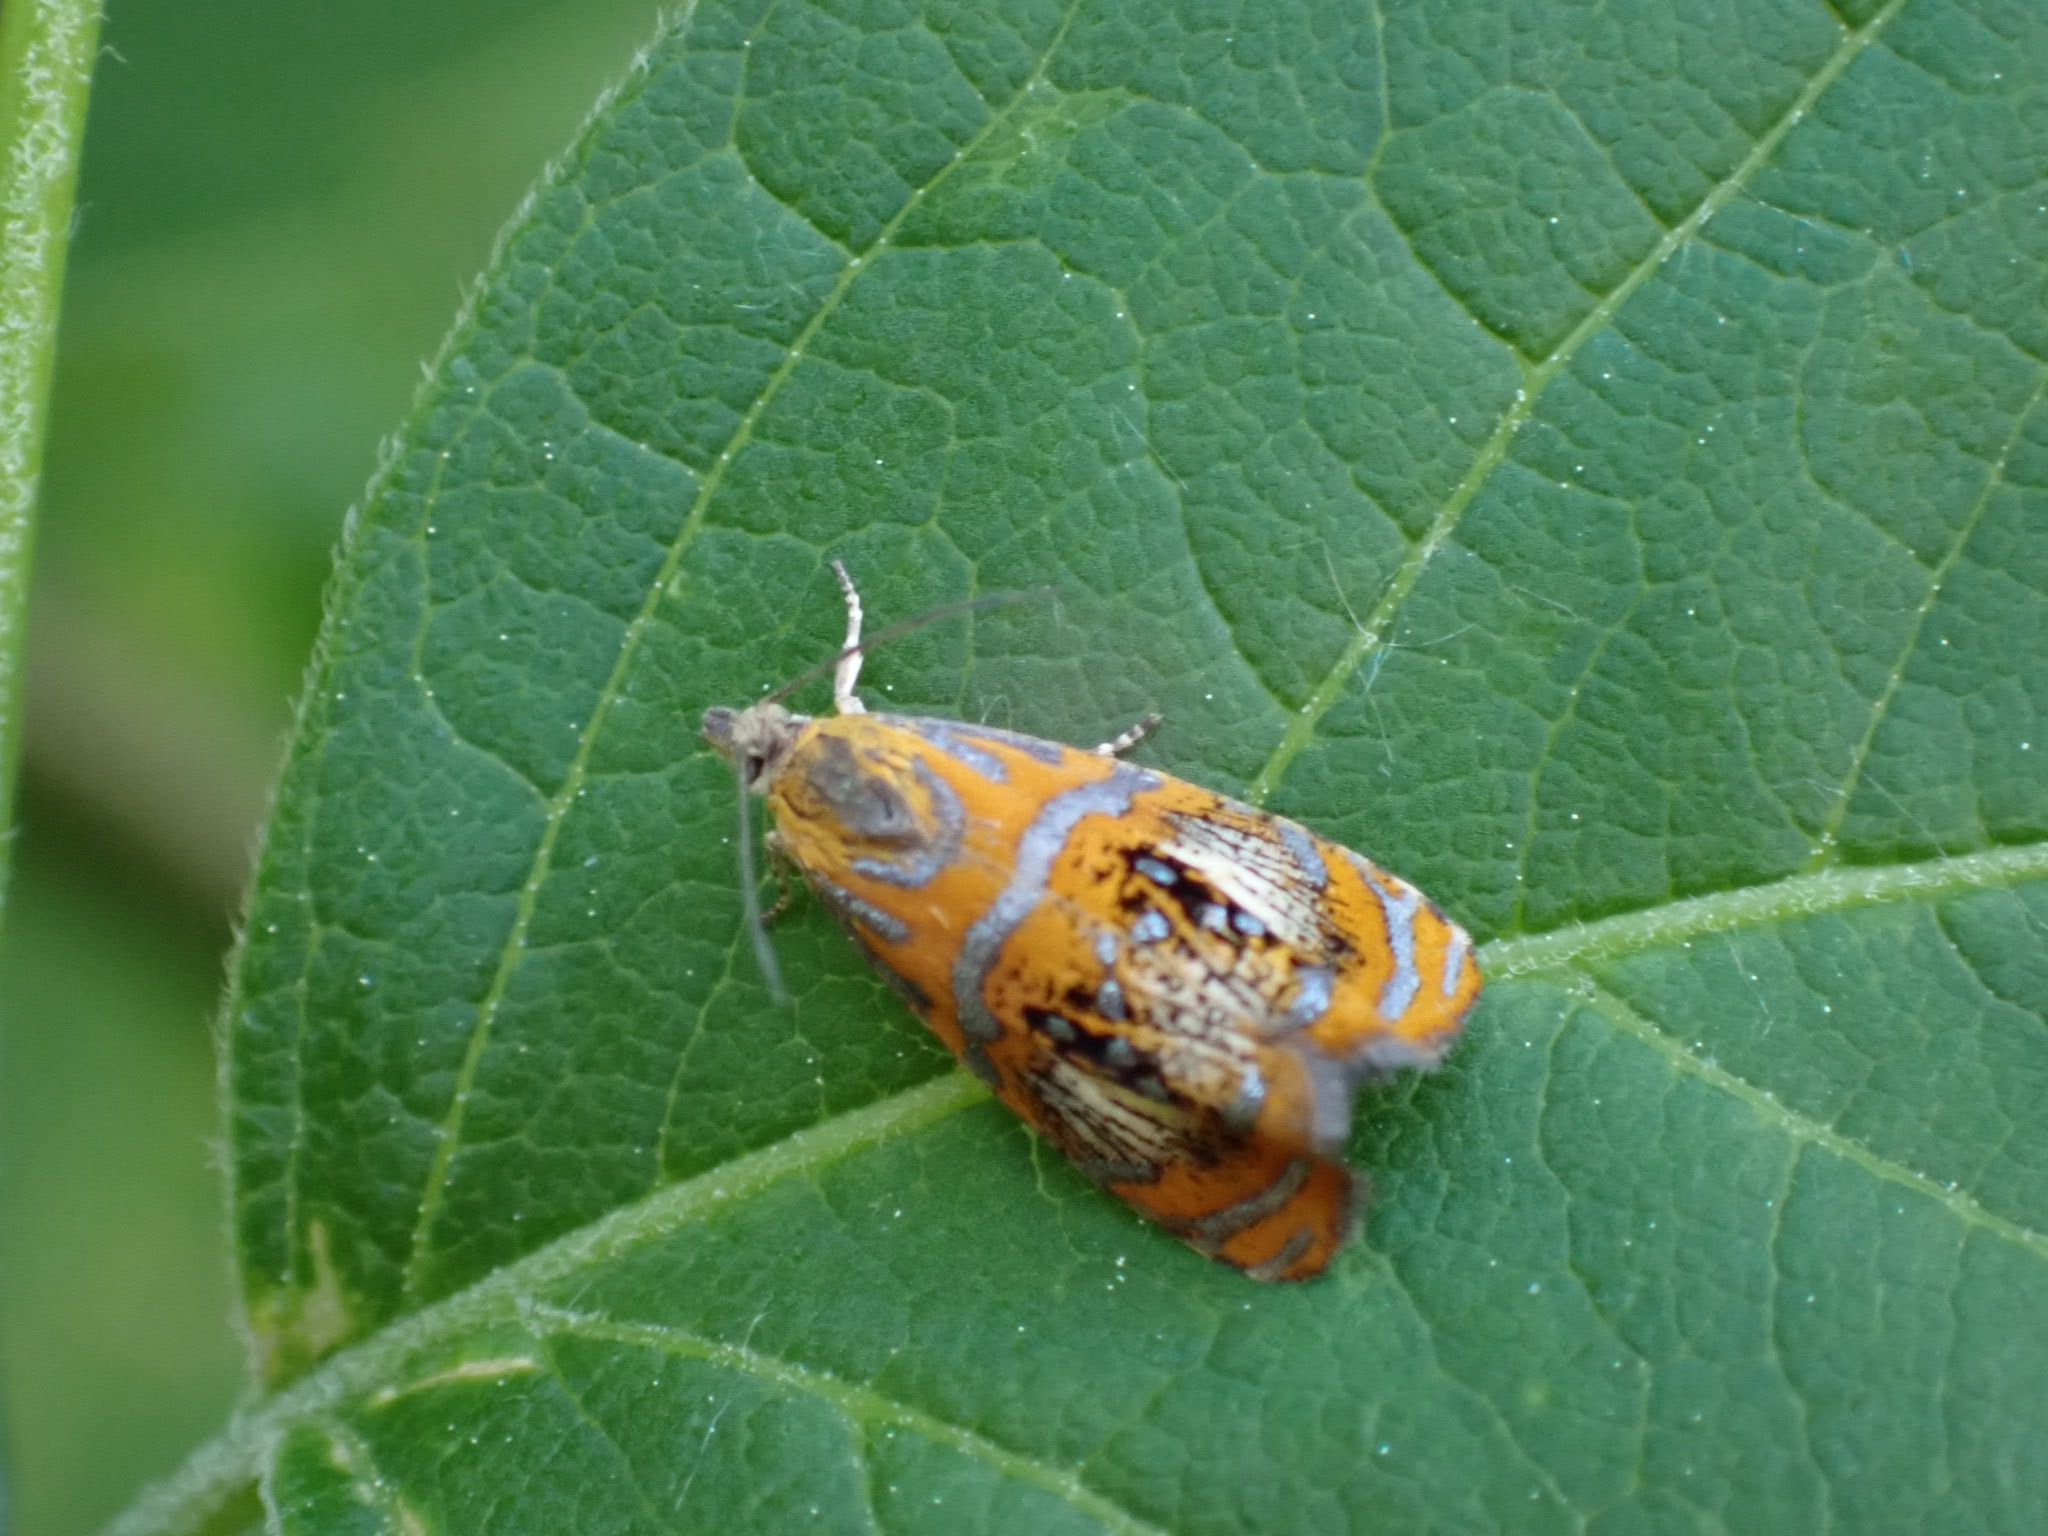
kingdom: Animalia
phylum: Arthropoda
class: Insecta
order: Lepidoptera
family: Tortricidae
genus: Olethreutes
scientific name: Olethreutes arcuella
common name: Arched marble
